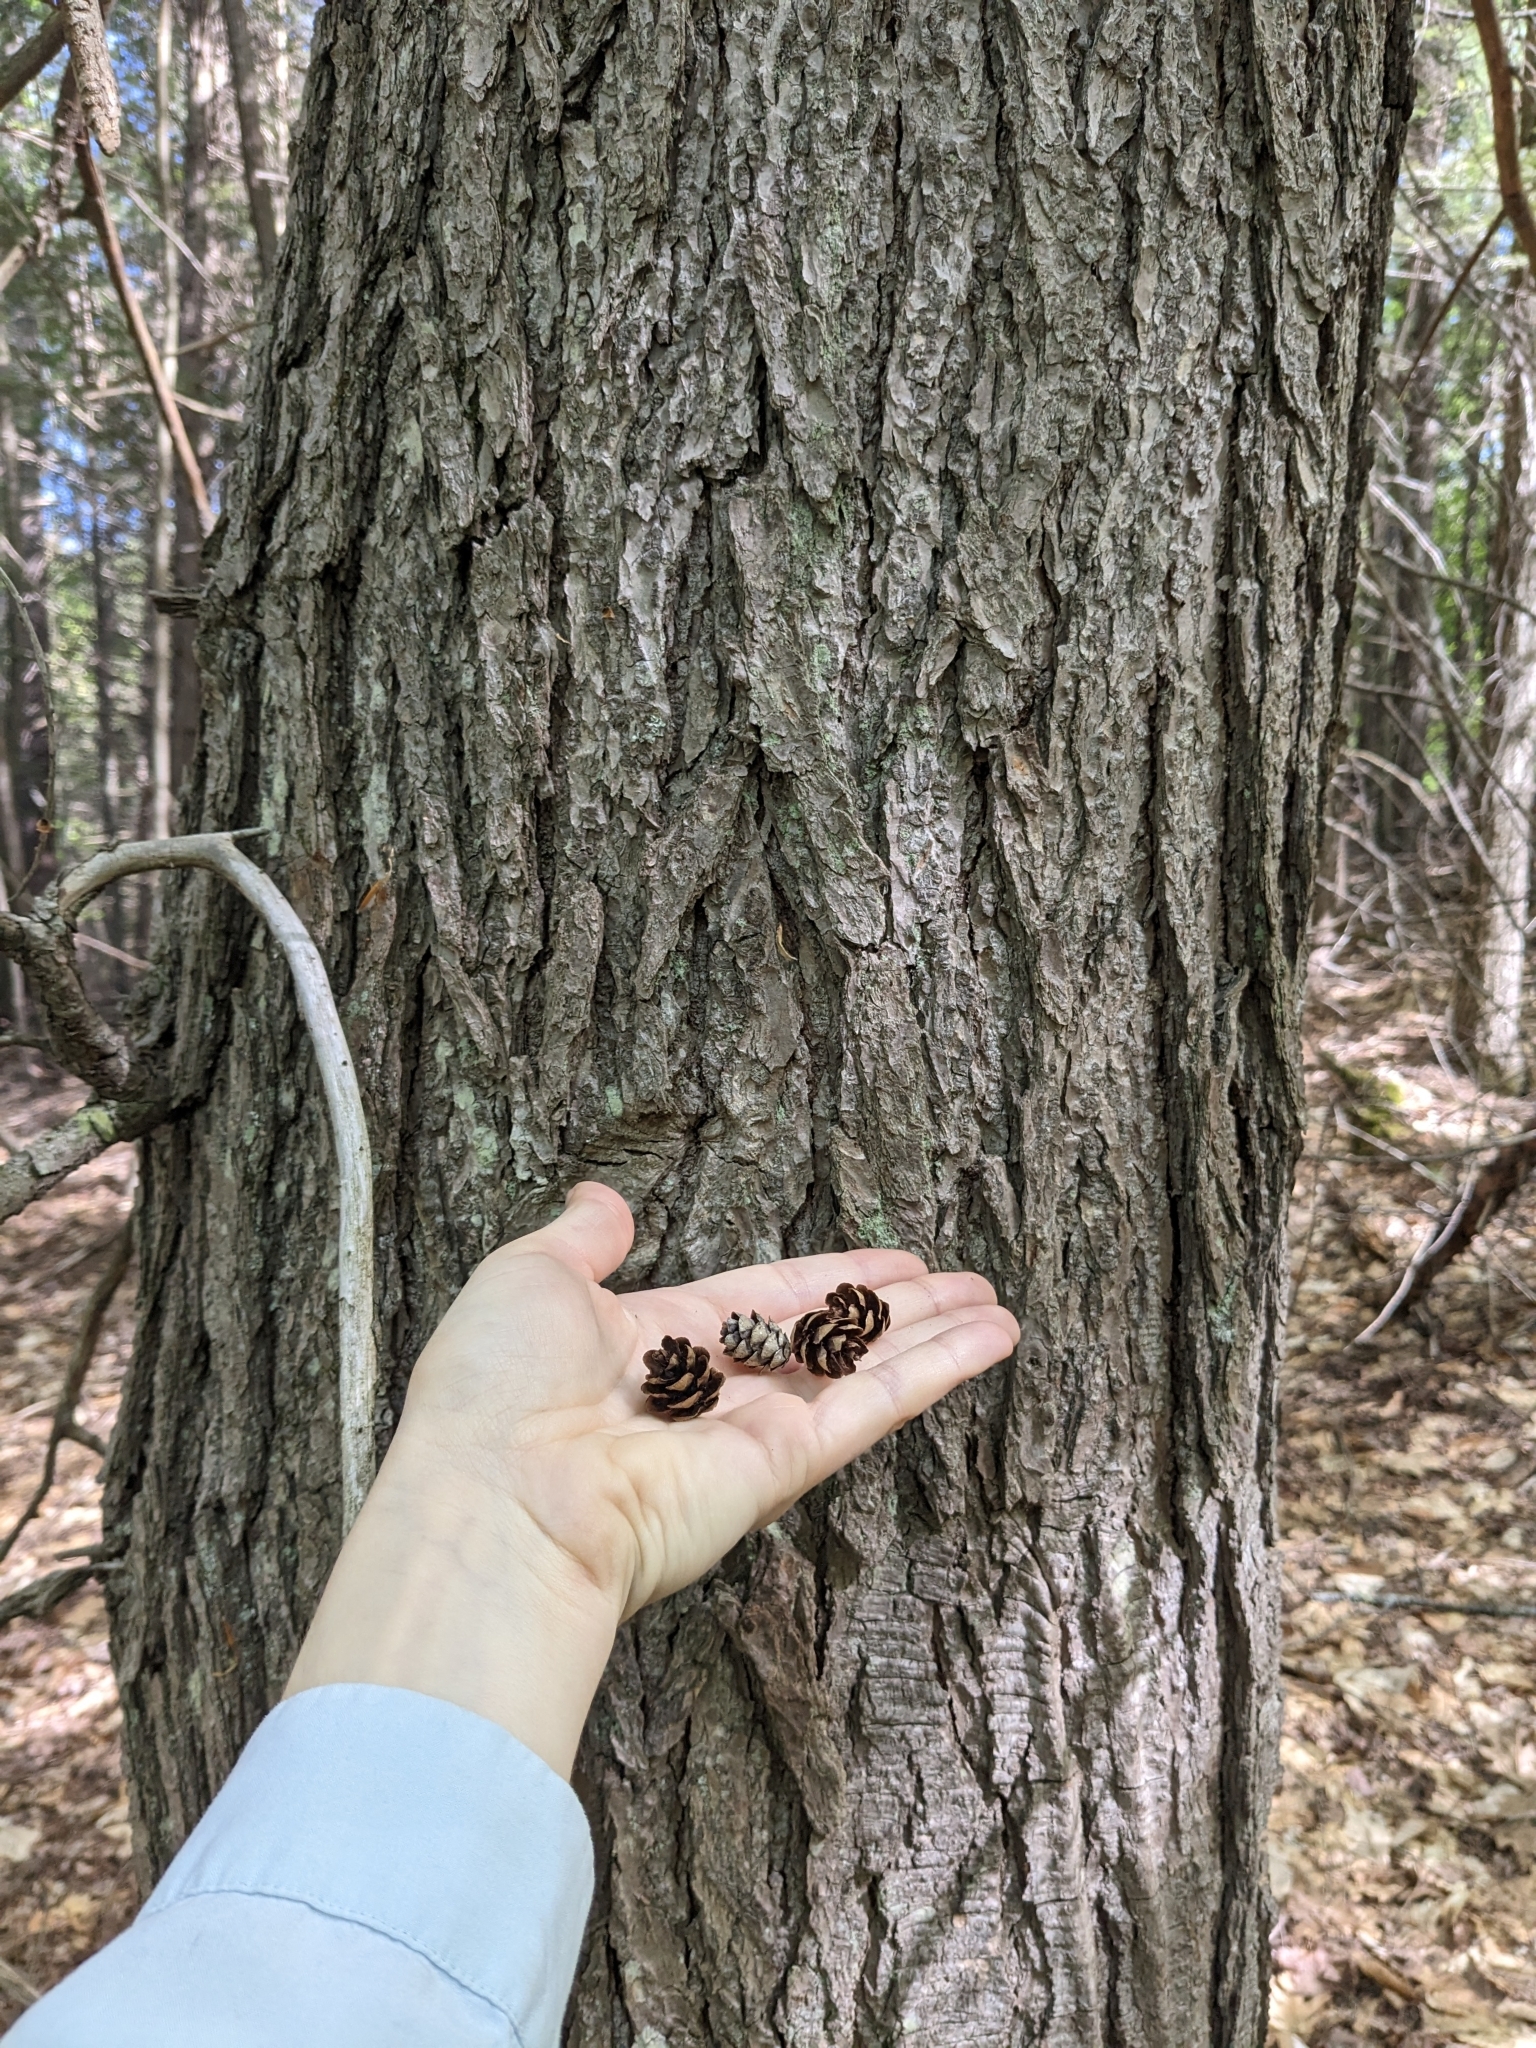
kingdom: Plantae
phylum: Tracheophyta
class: Pinopsida
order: Pinales
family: Pinaceae
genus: Tsuga
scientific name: Tsuga canadensis
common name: Eastern hemlock
